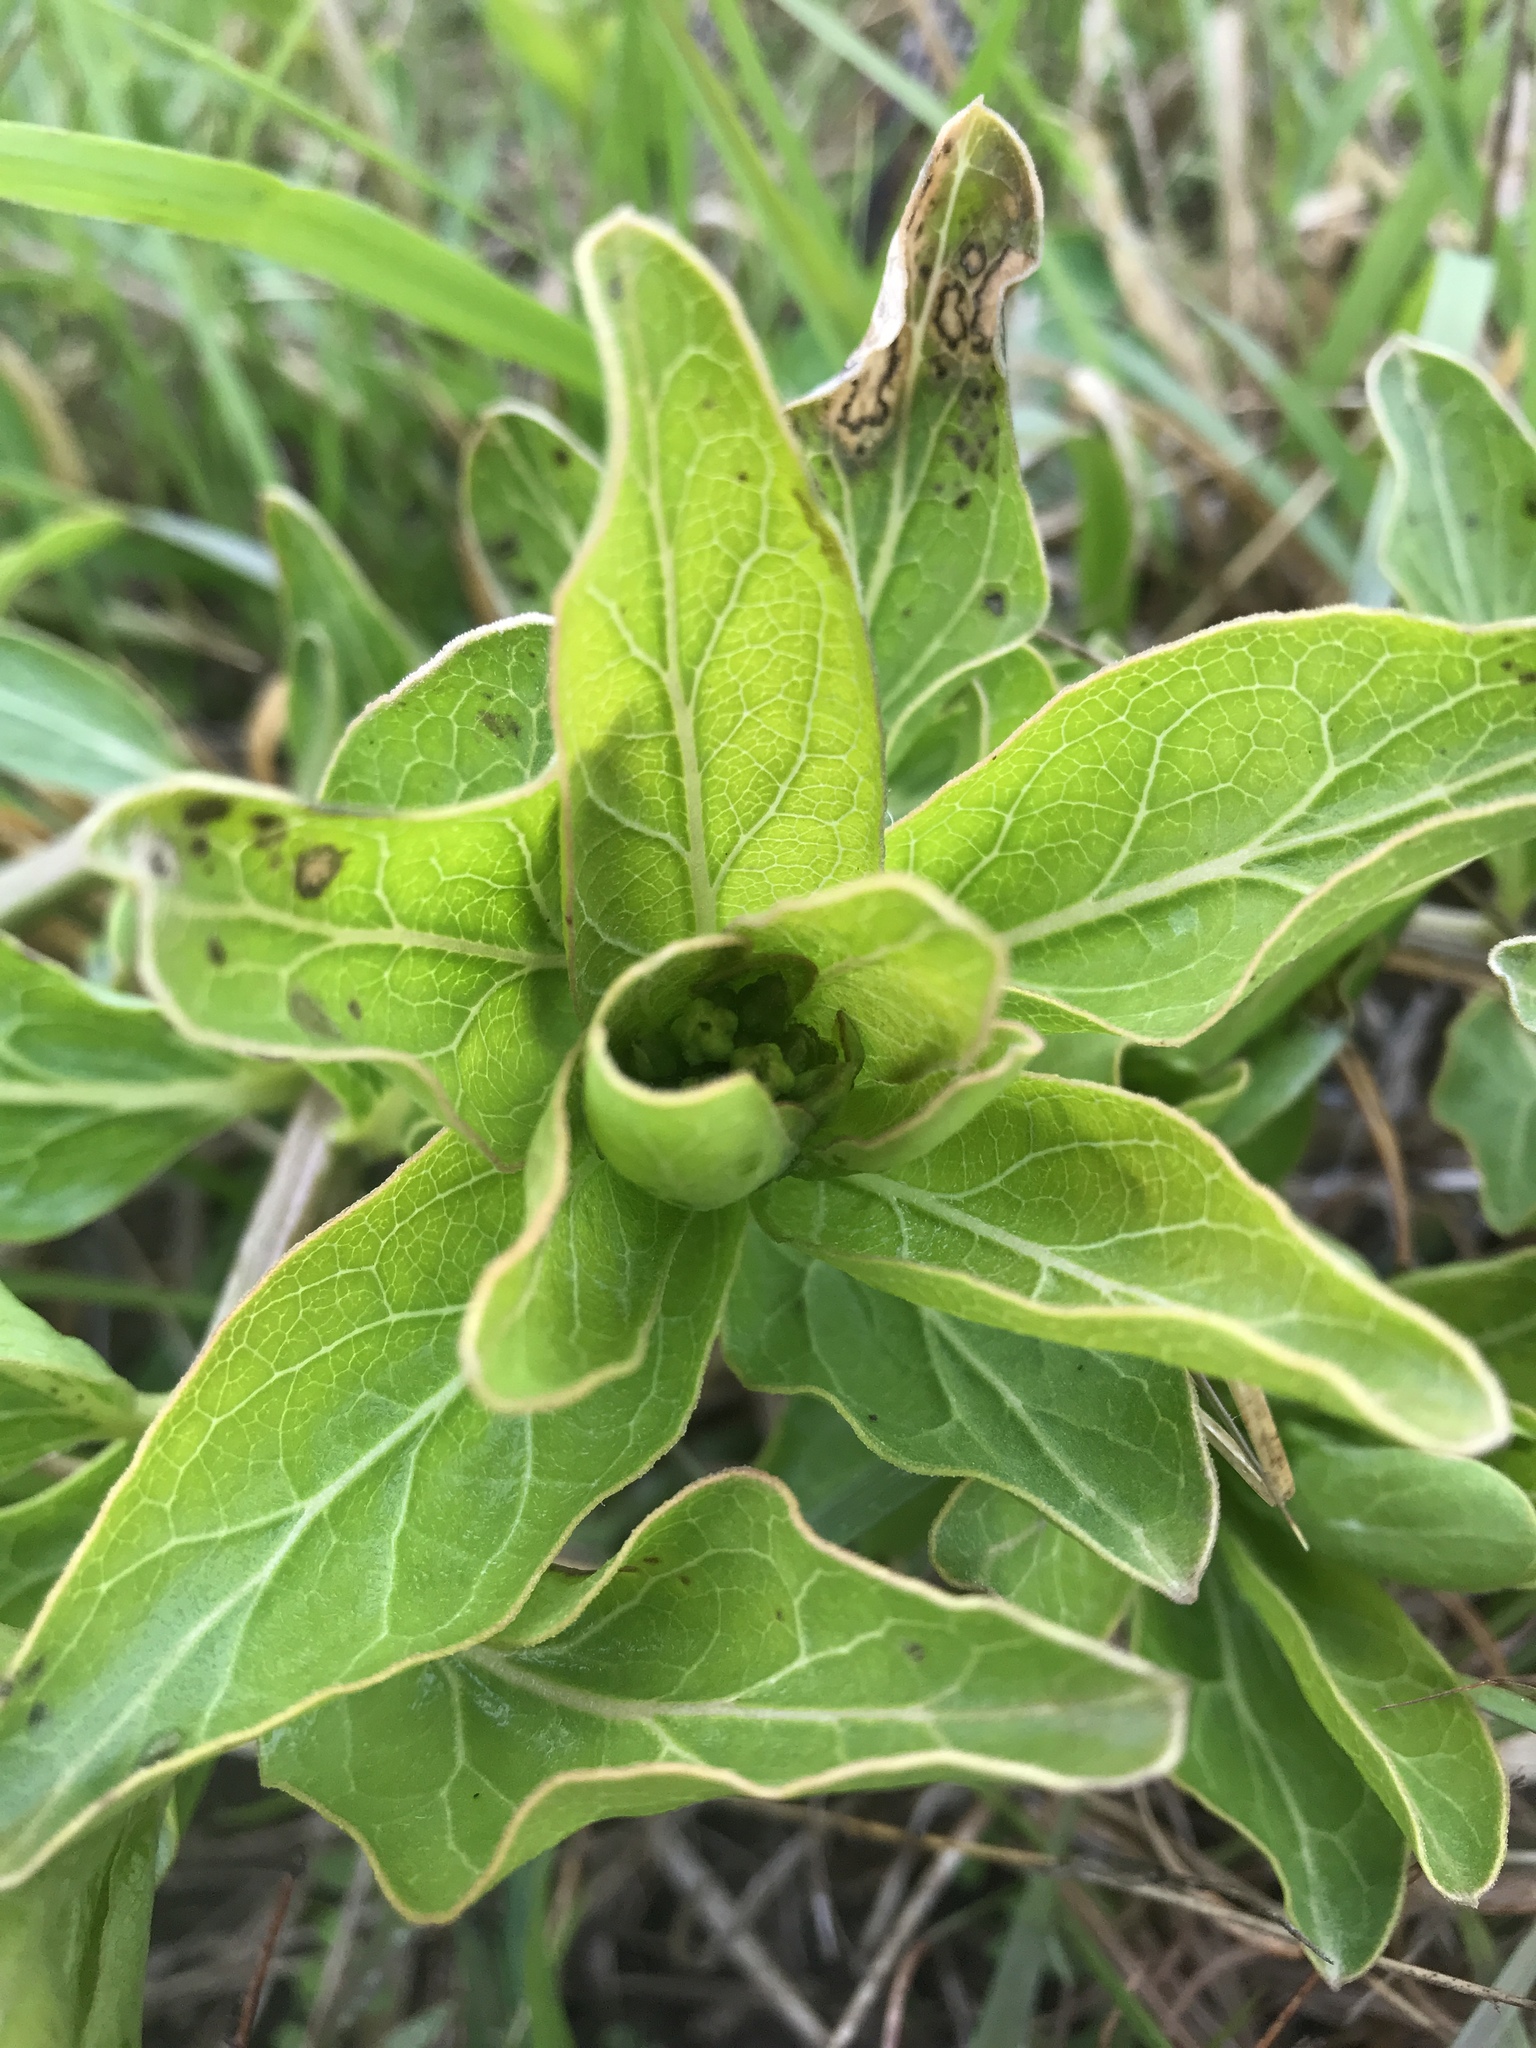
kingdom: Plantae
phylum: Tracheophyta
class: Magnoliopsida
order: Gentianales
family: Apocynaceae
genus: Asclepias
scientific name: Asclepias viridis
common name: Antelope-horns
